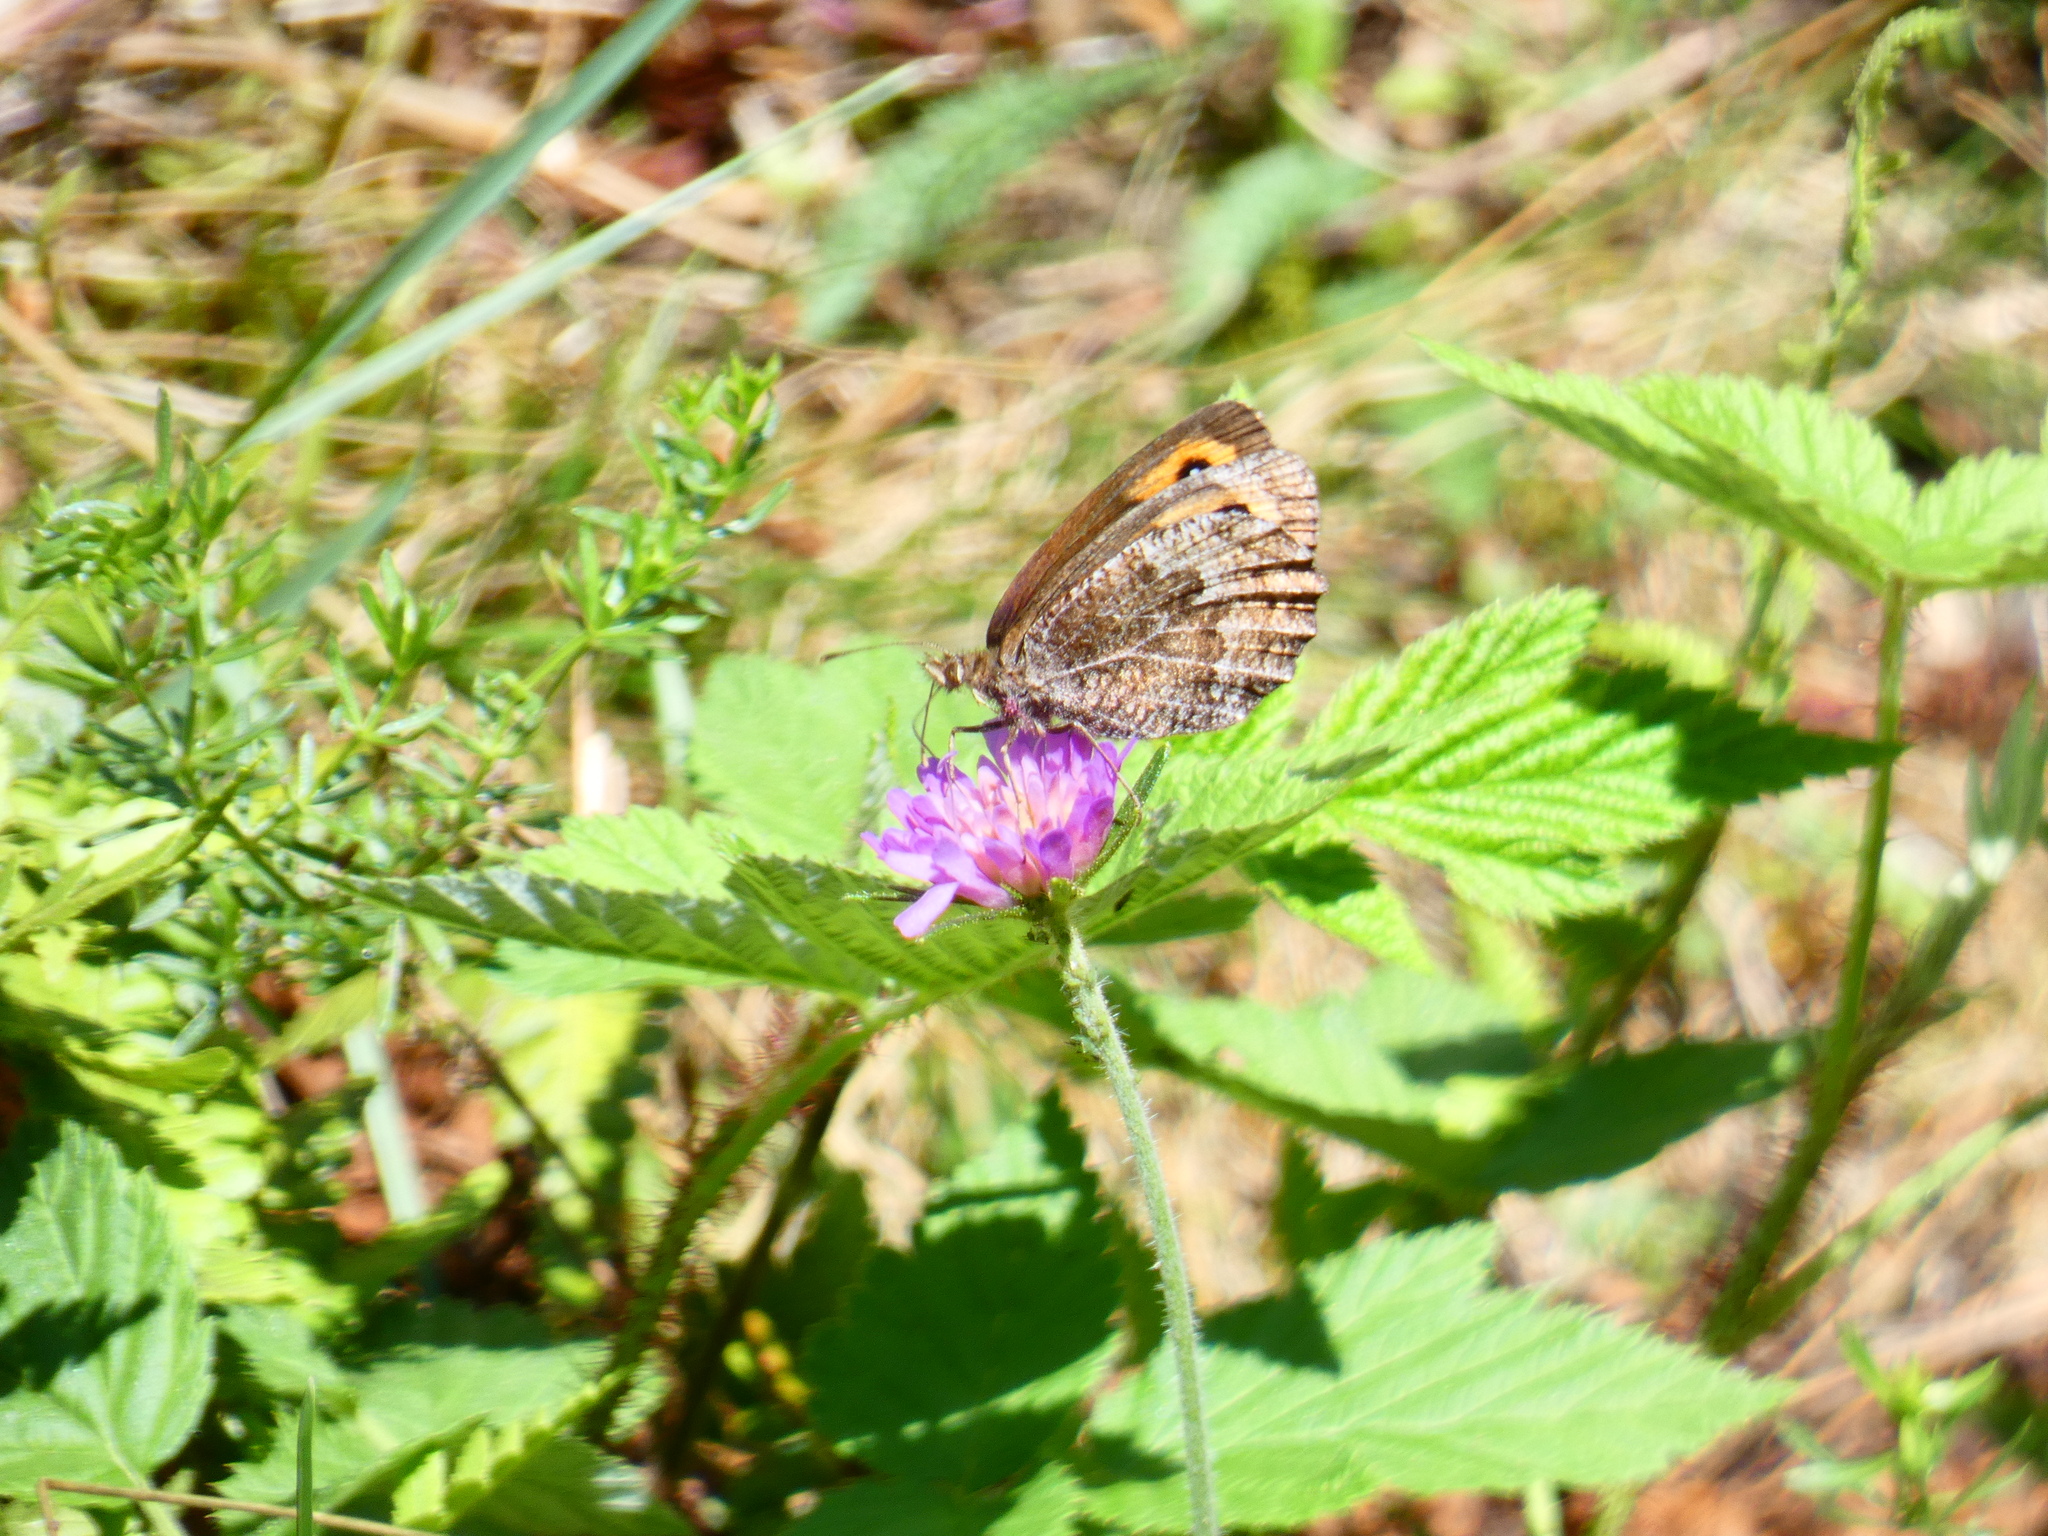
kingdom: Animalia
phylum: Arthropoda
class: Insecta
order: Lepidoptera
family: Nymphalidae
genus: Erebia
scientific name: Erebia montanus
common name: Marbled ringlet
